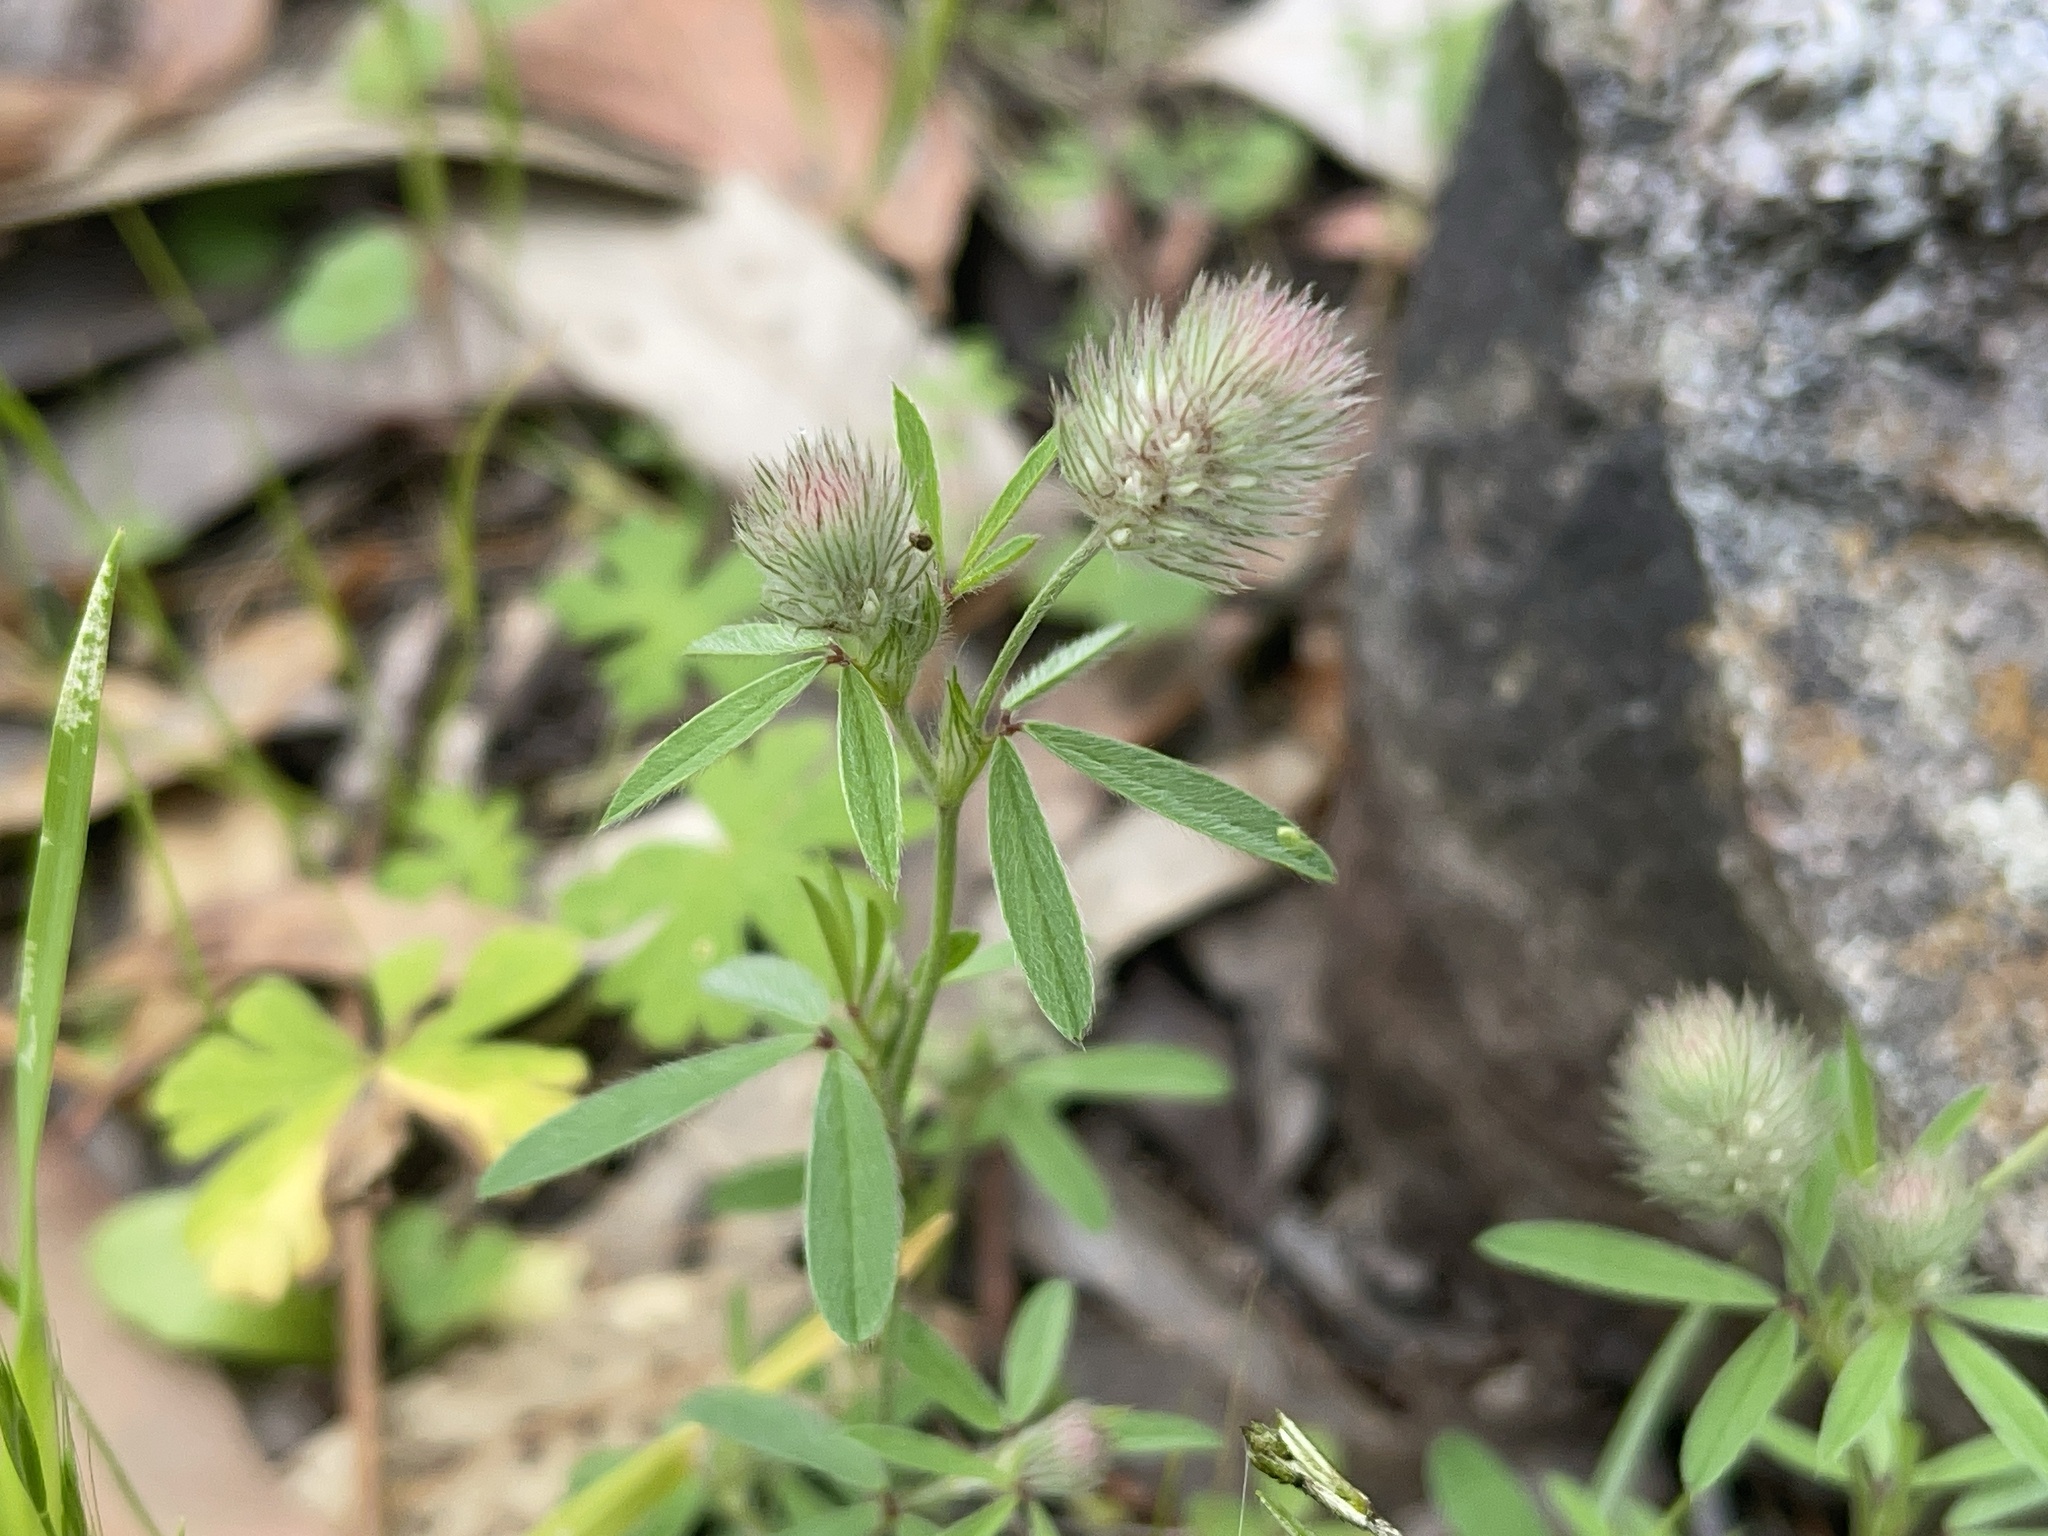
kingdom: Plantae
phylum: Tracheophyta
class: Magnoliopsida
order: Fabales
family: Fabaceae
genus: Trifolium
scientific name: Trifolium arvense
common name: Hare's-foot clover
